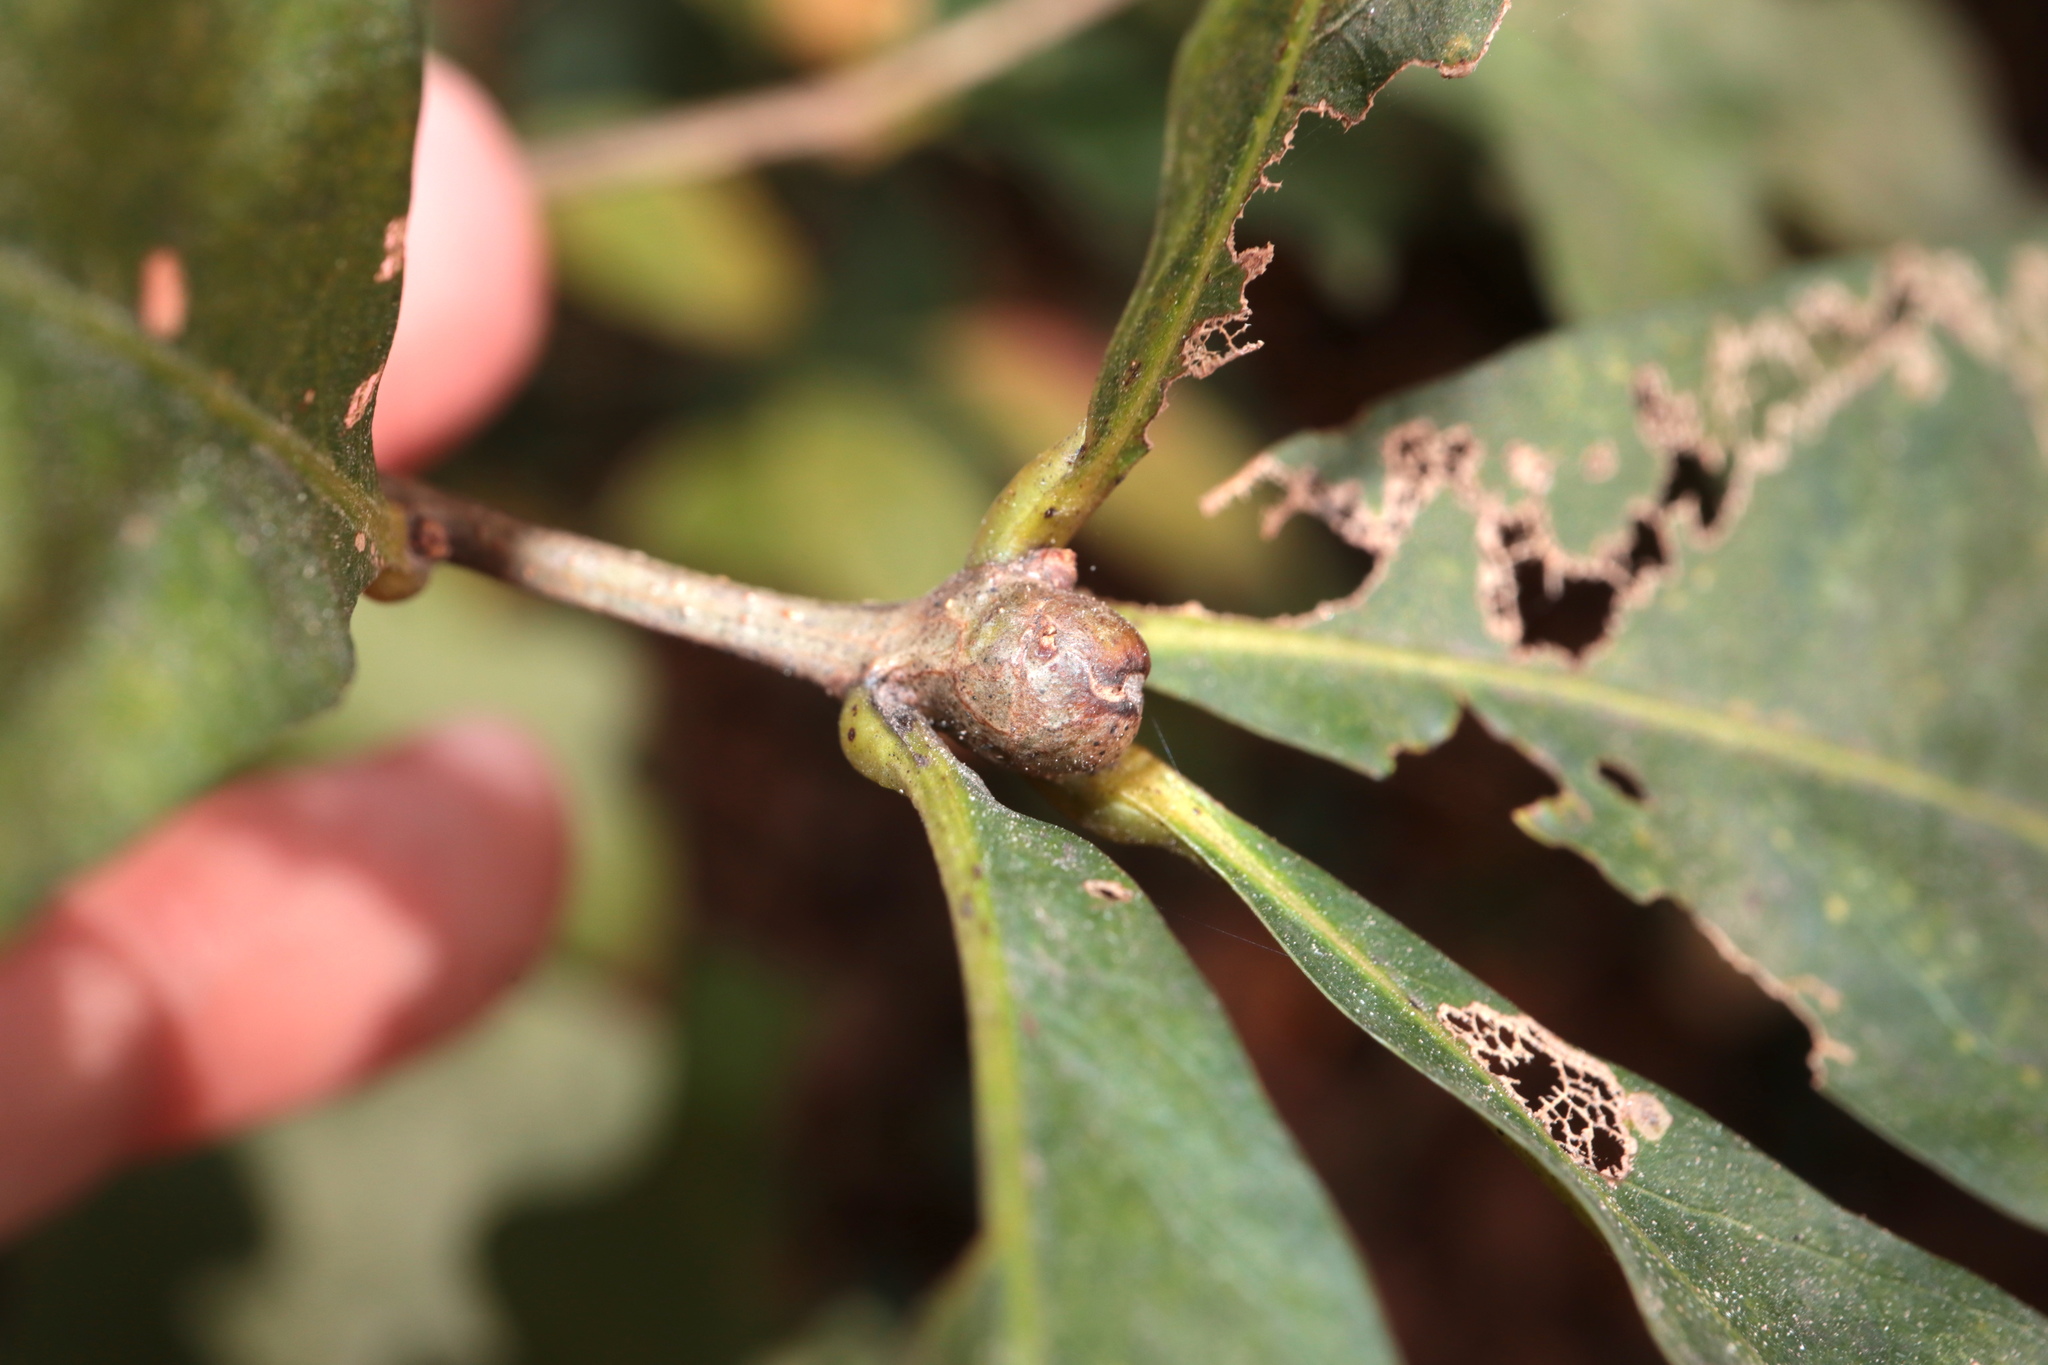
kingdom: Animalia
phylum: Arthropoda
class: Insecta
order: Hymenoptera
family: Cynipidae
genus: Callirhytis
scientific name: Callirhytis clavula
